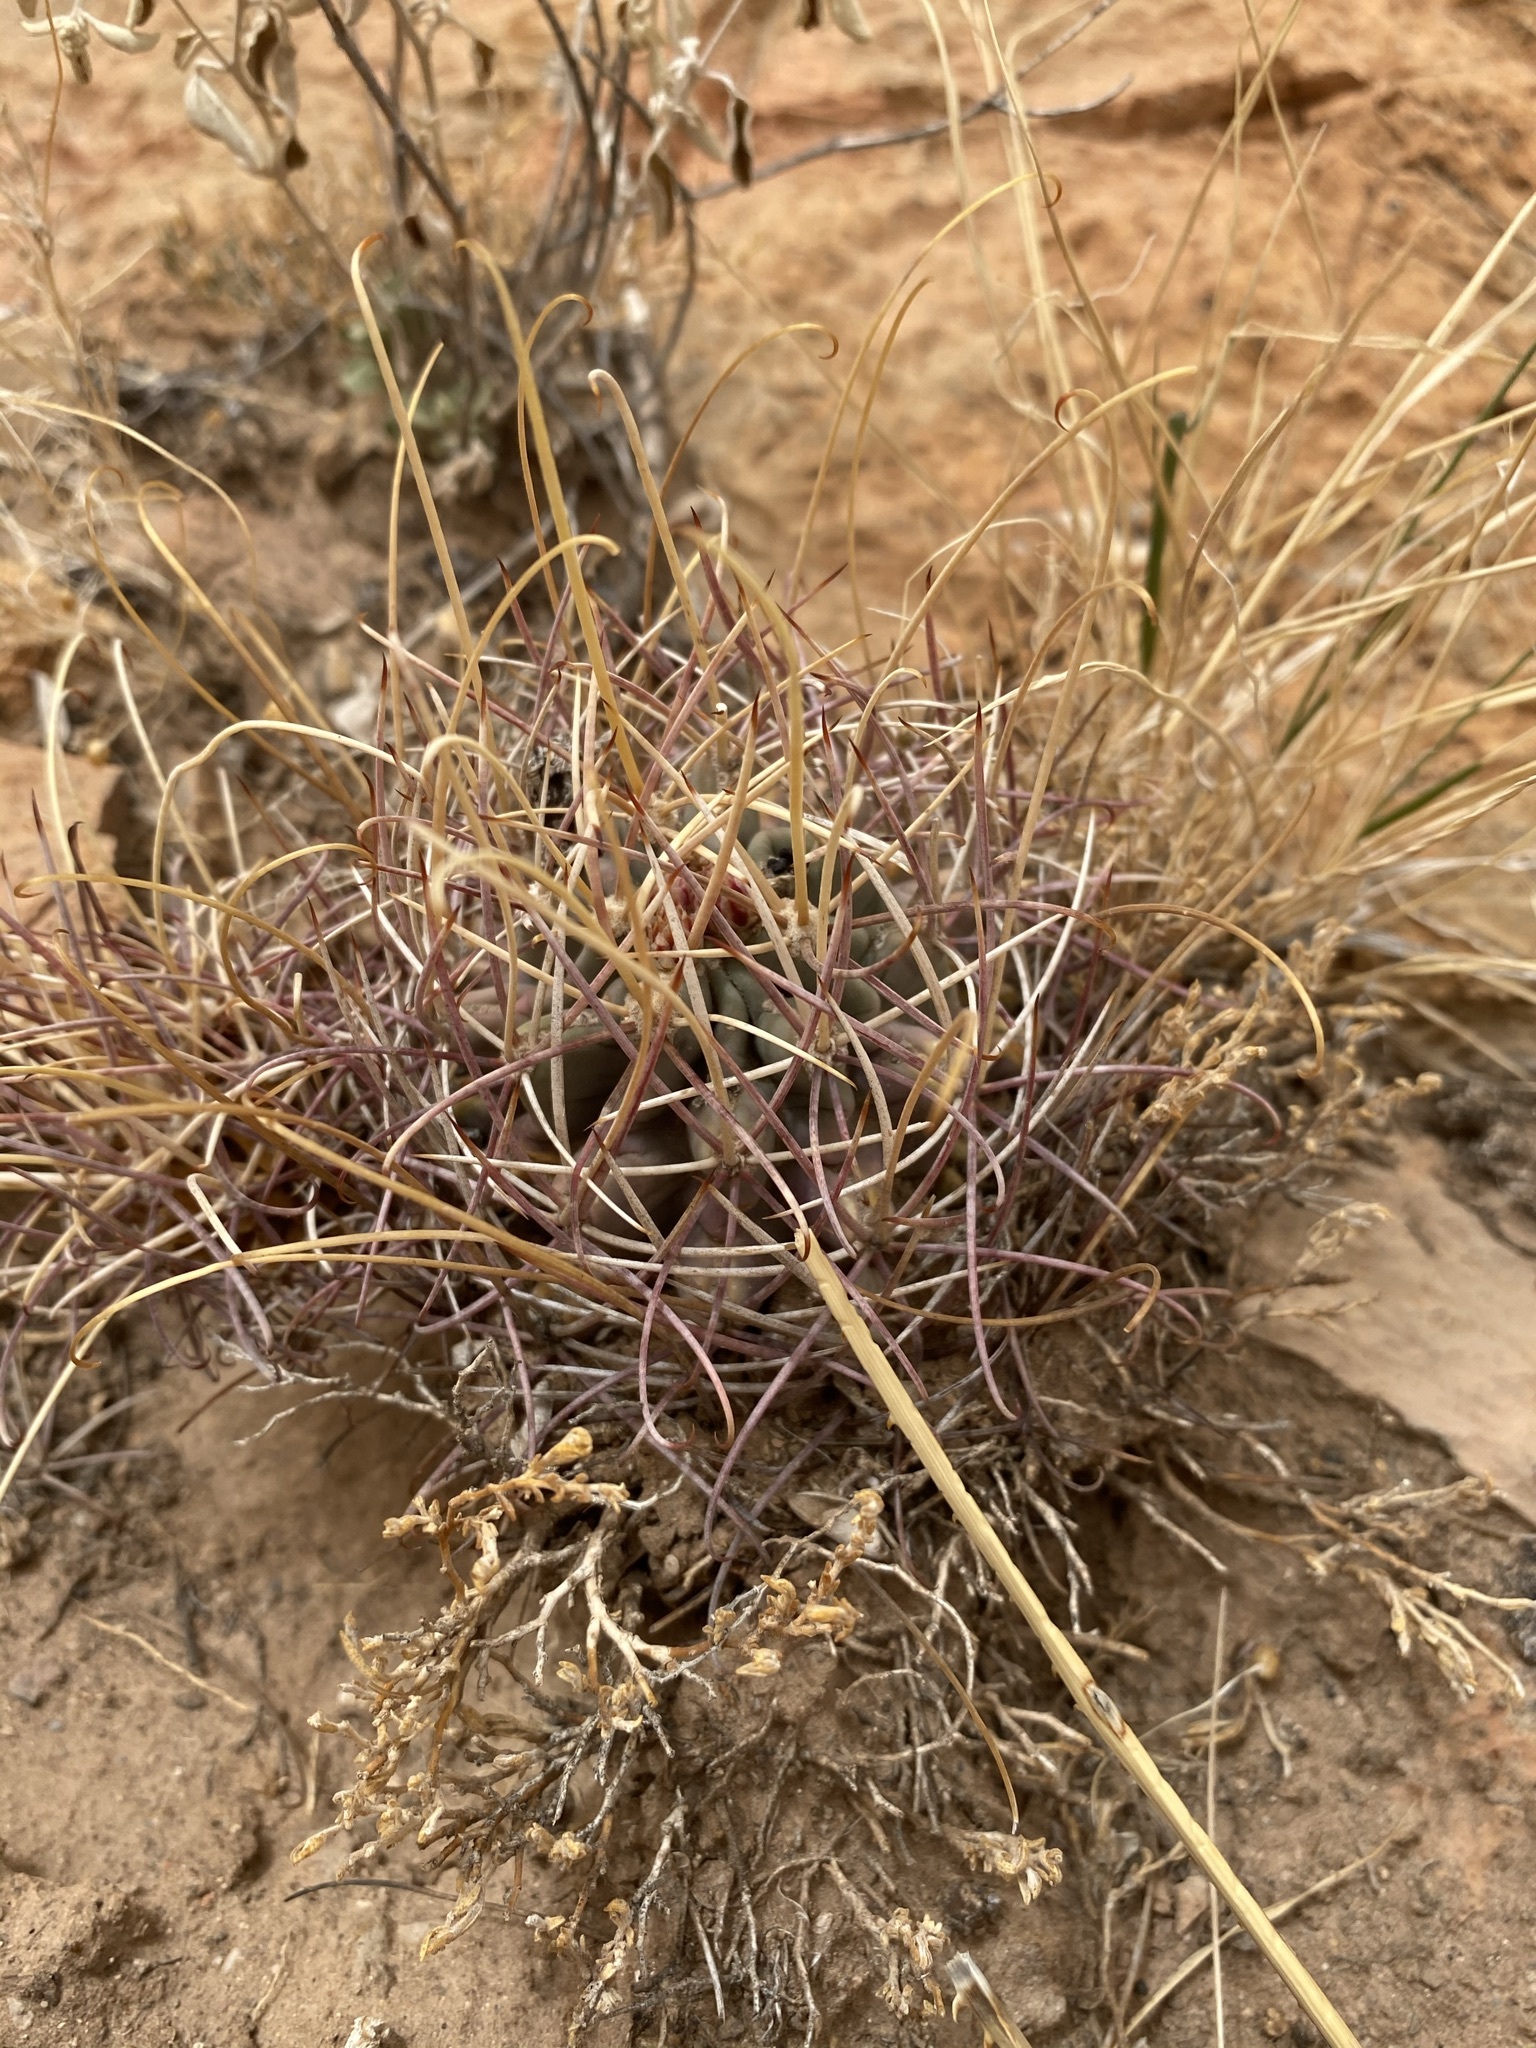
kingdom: Plantae
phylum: Tracheophyta
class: Magnoliopsida
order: Caryophyllales
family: Cactaceae
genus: Ferocactus
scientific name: Ferocactus uncinatus
